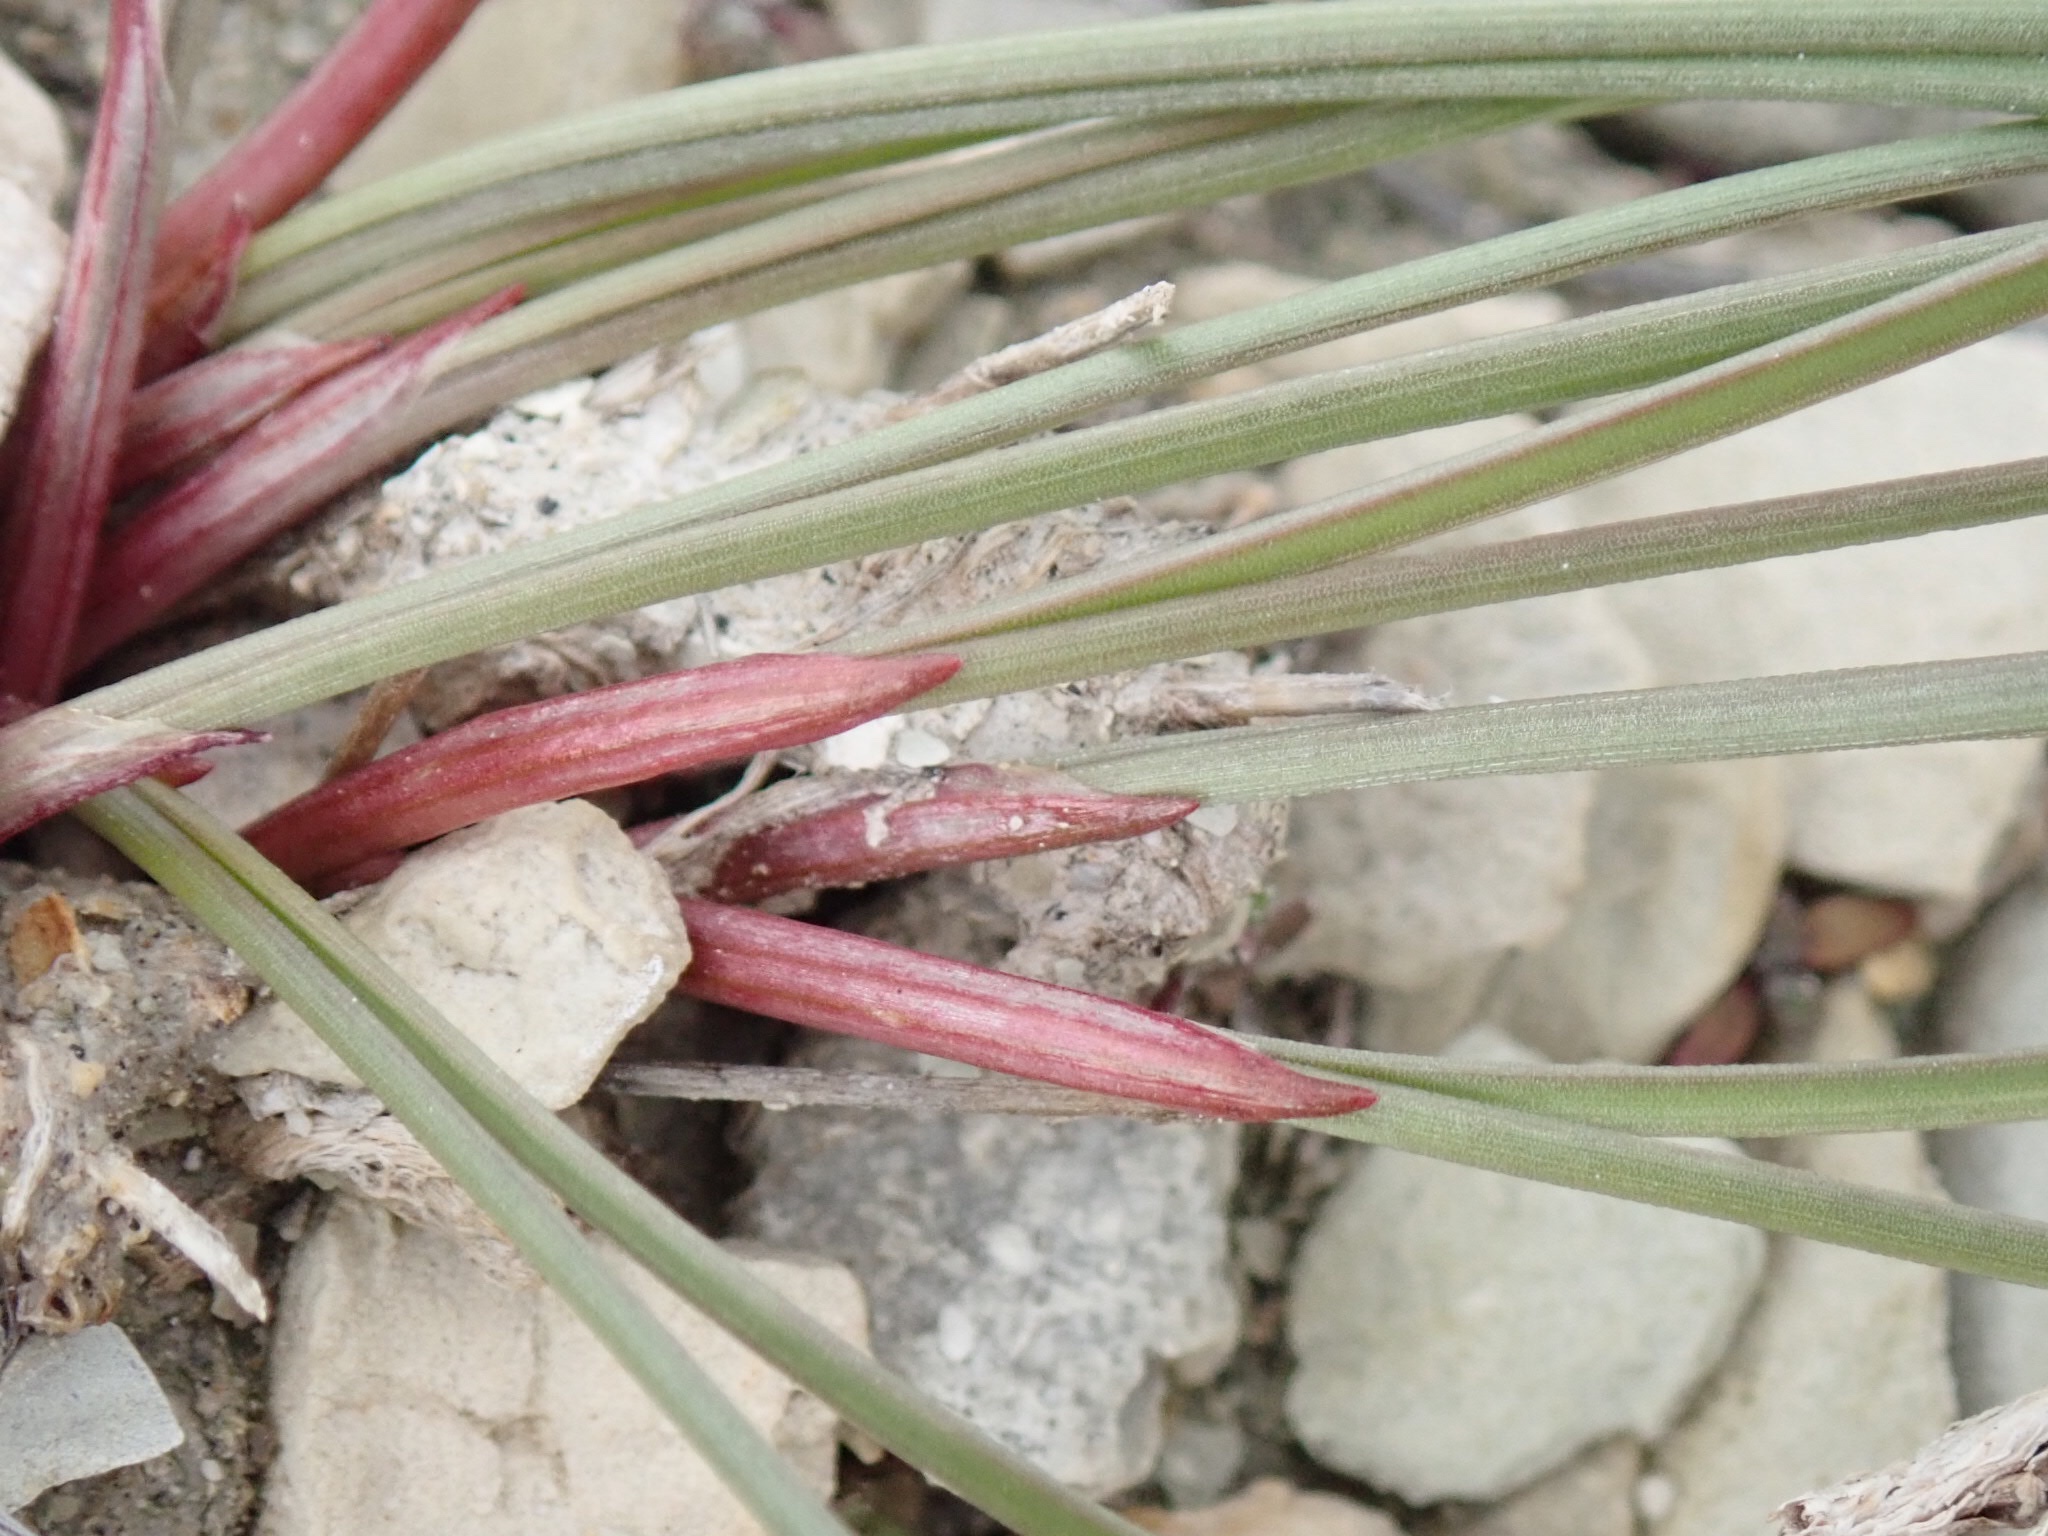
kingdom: Plantae
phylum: Tracheophyta
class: Liliopsida
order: Asparagales
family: Amaryllidaceae
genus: Allium
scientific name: Allium textile
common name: Prairie onion
